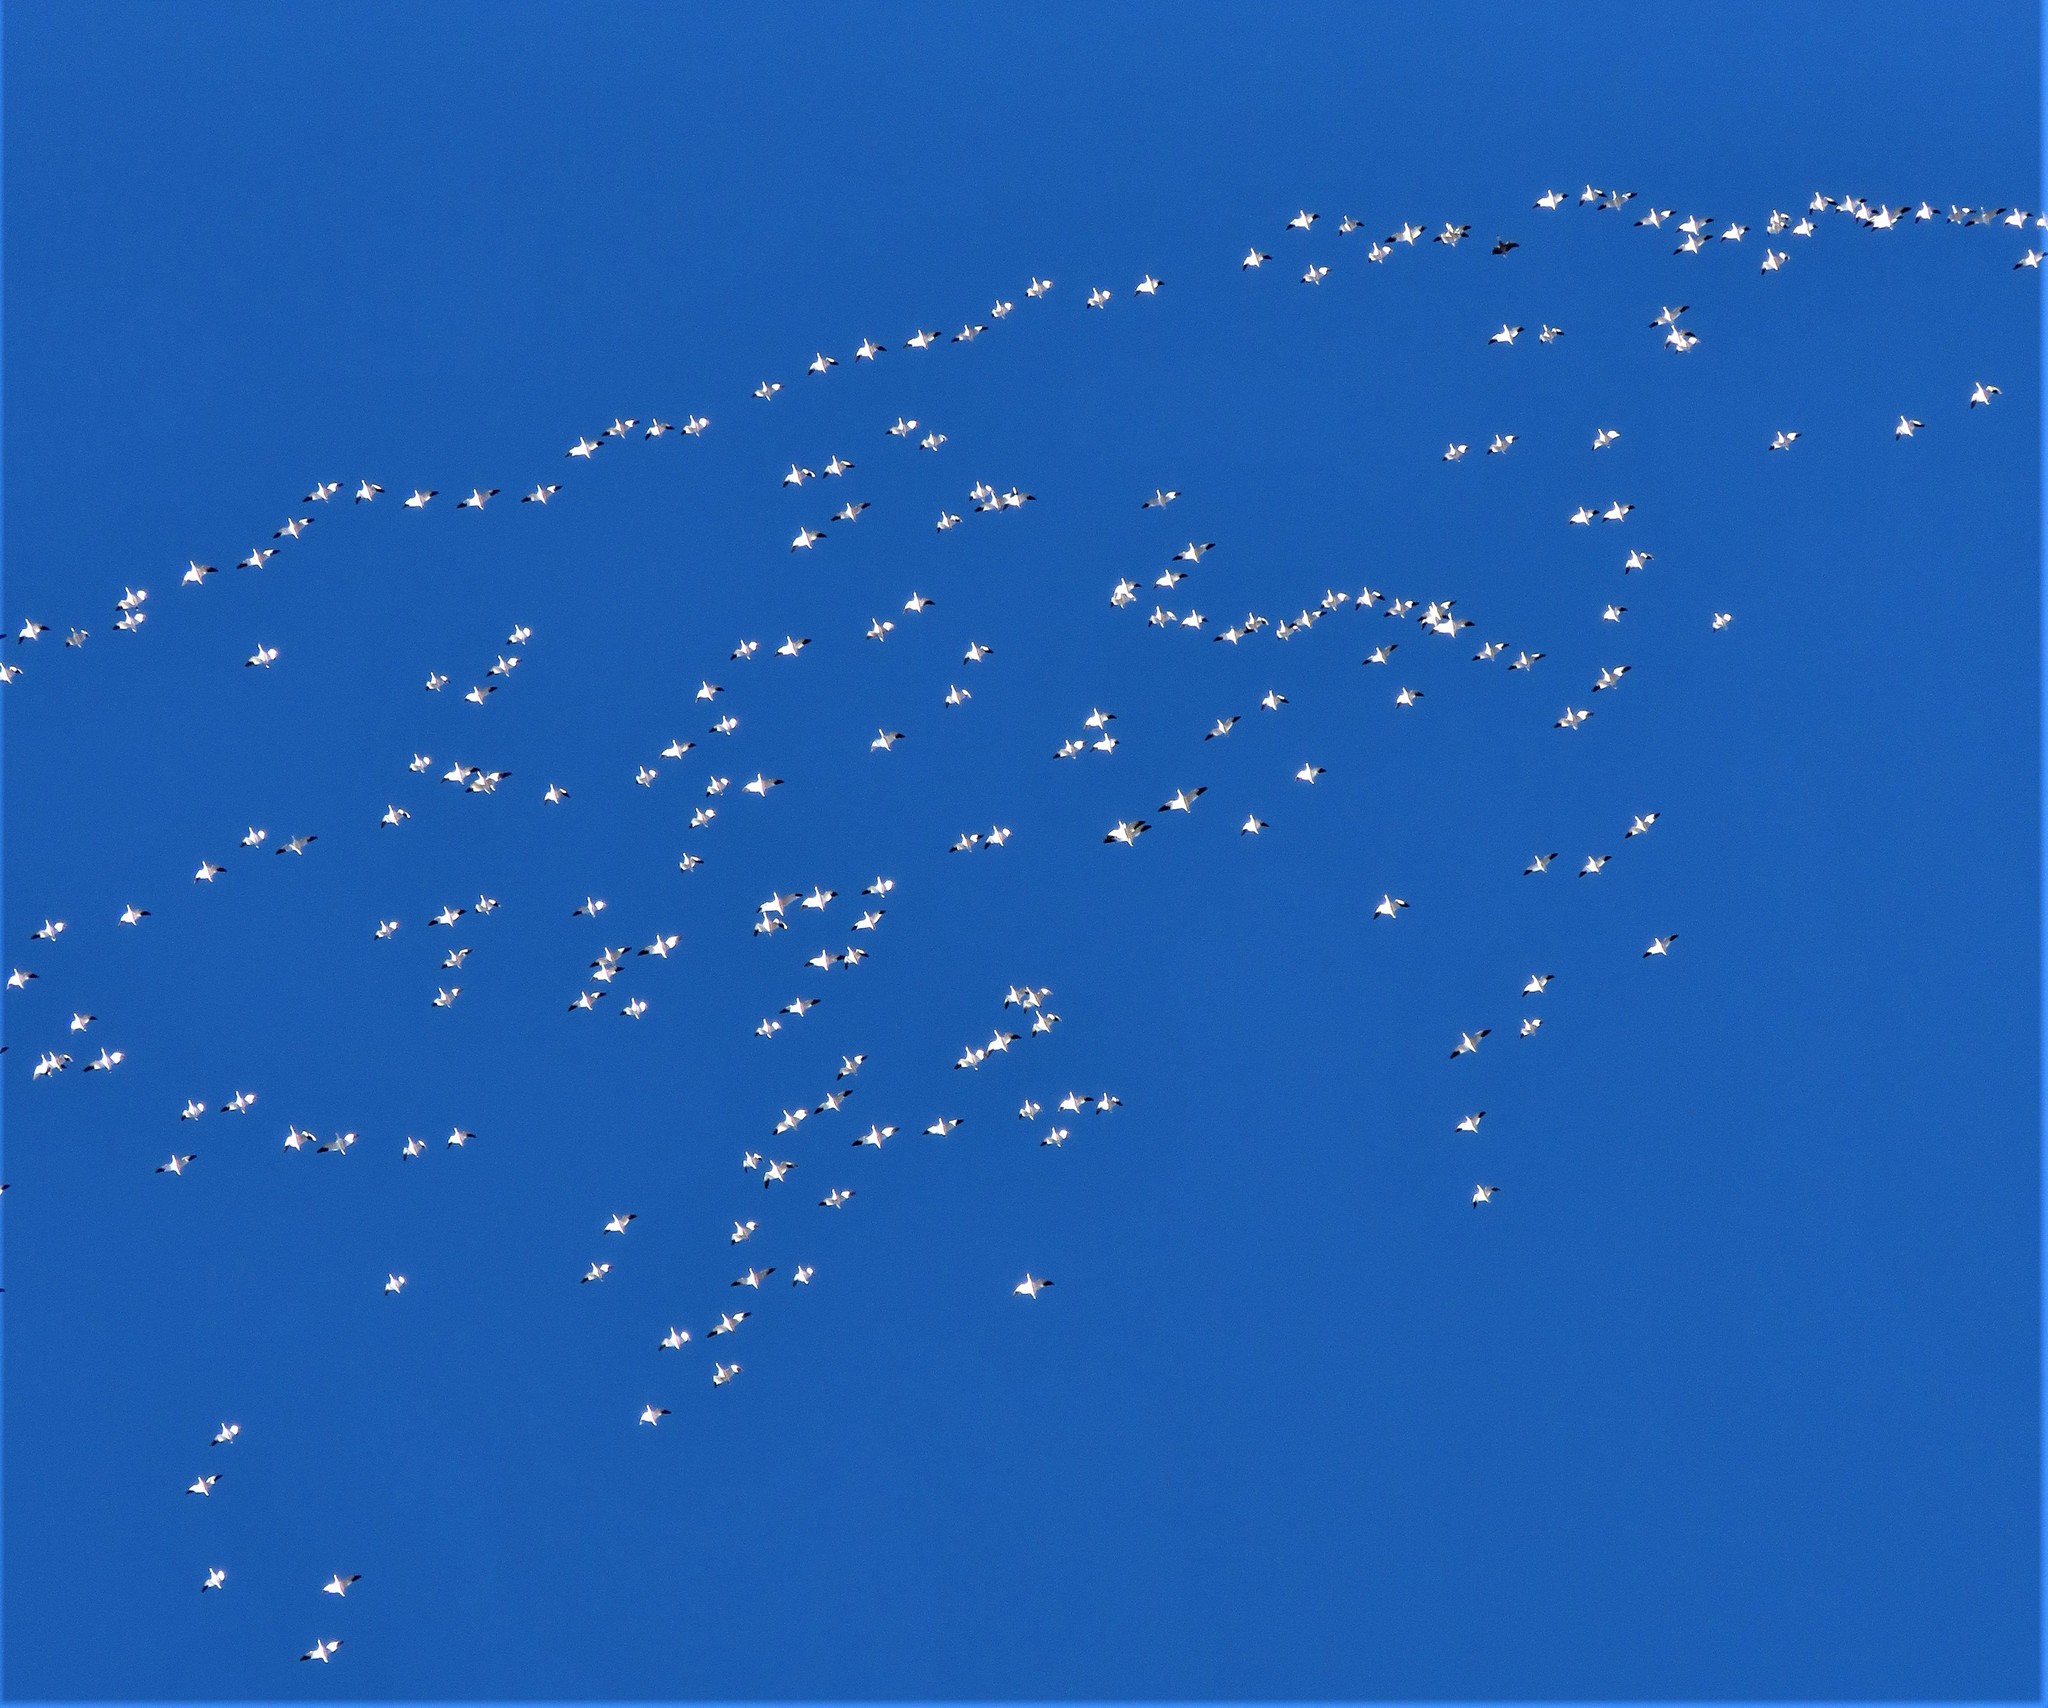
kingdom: Animalia
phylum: Chordata
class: Aves
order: Anseriformes
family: Anatidae
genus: Anser
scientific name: Anser caerulescens
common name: Snow goose
